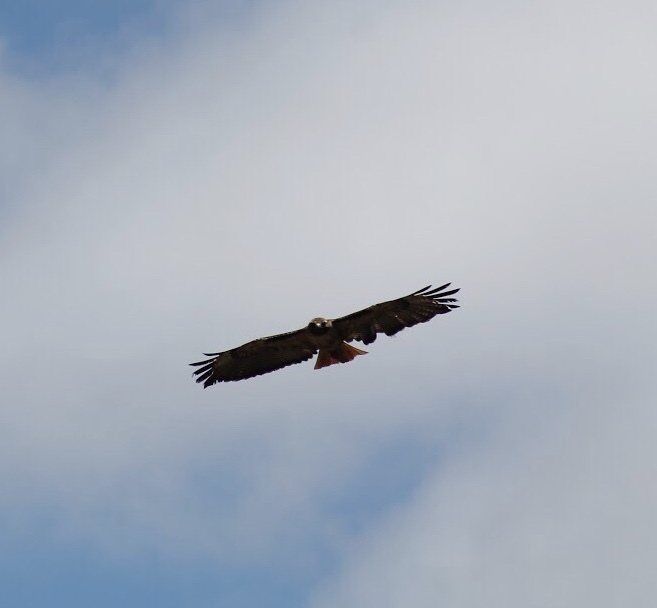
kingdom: Animalia
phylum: Chordata
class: Aves
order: Accipitriformes
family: Accipitridae
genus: Buteo
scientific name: Buteo jamaicensis
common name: Red-tailed hawk
